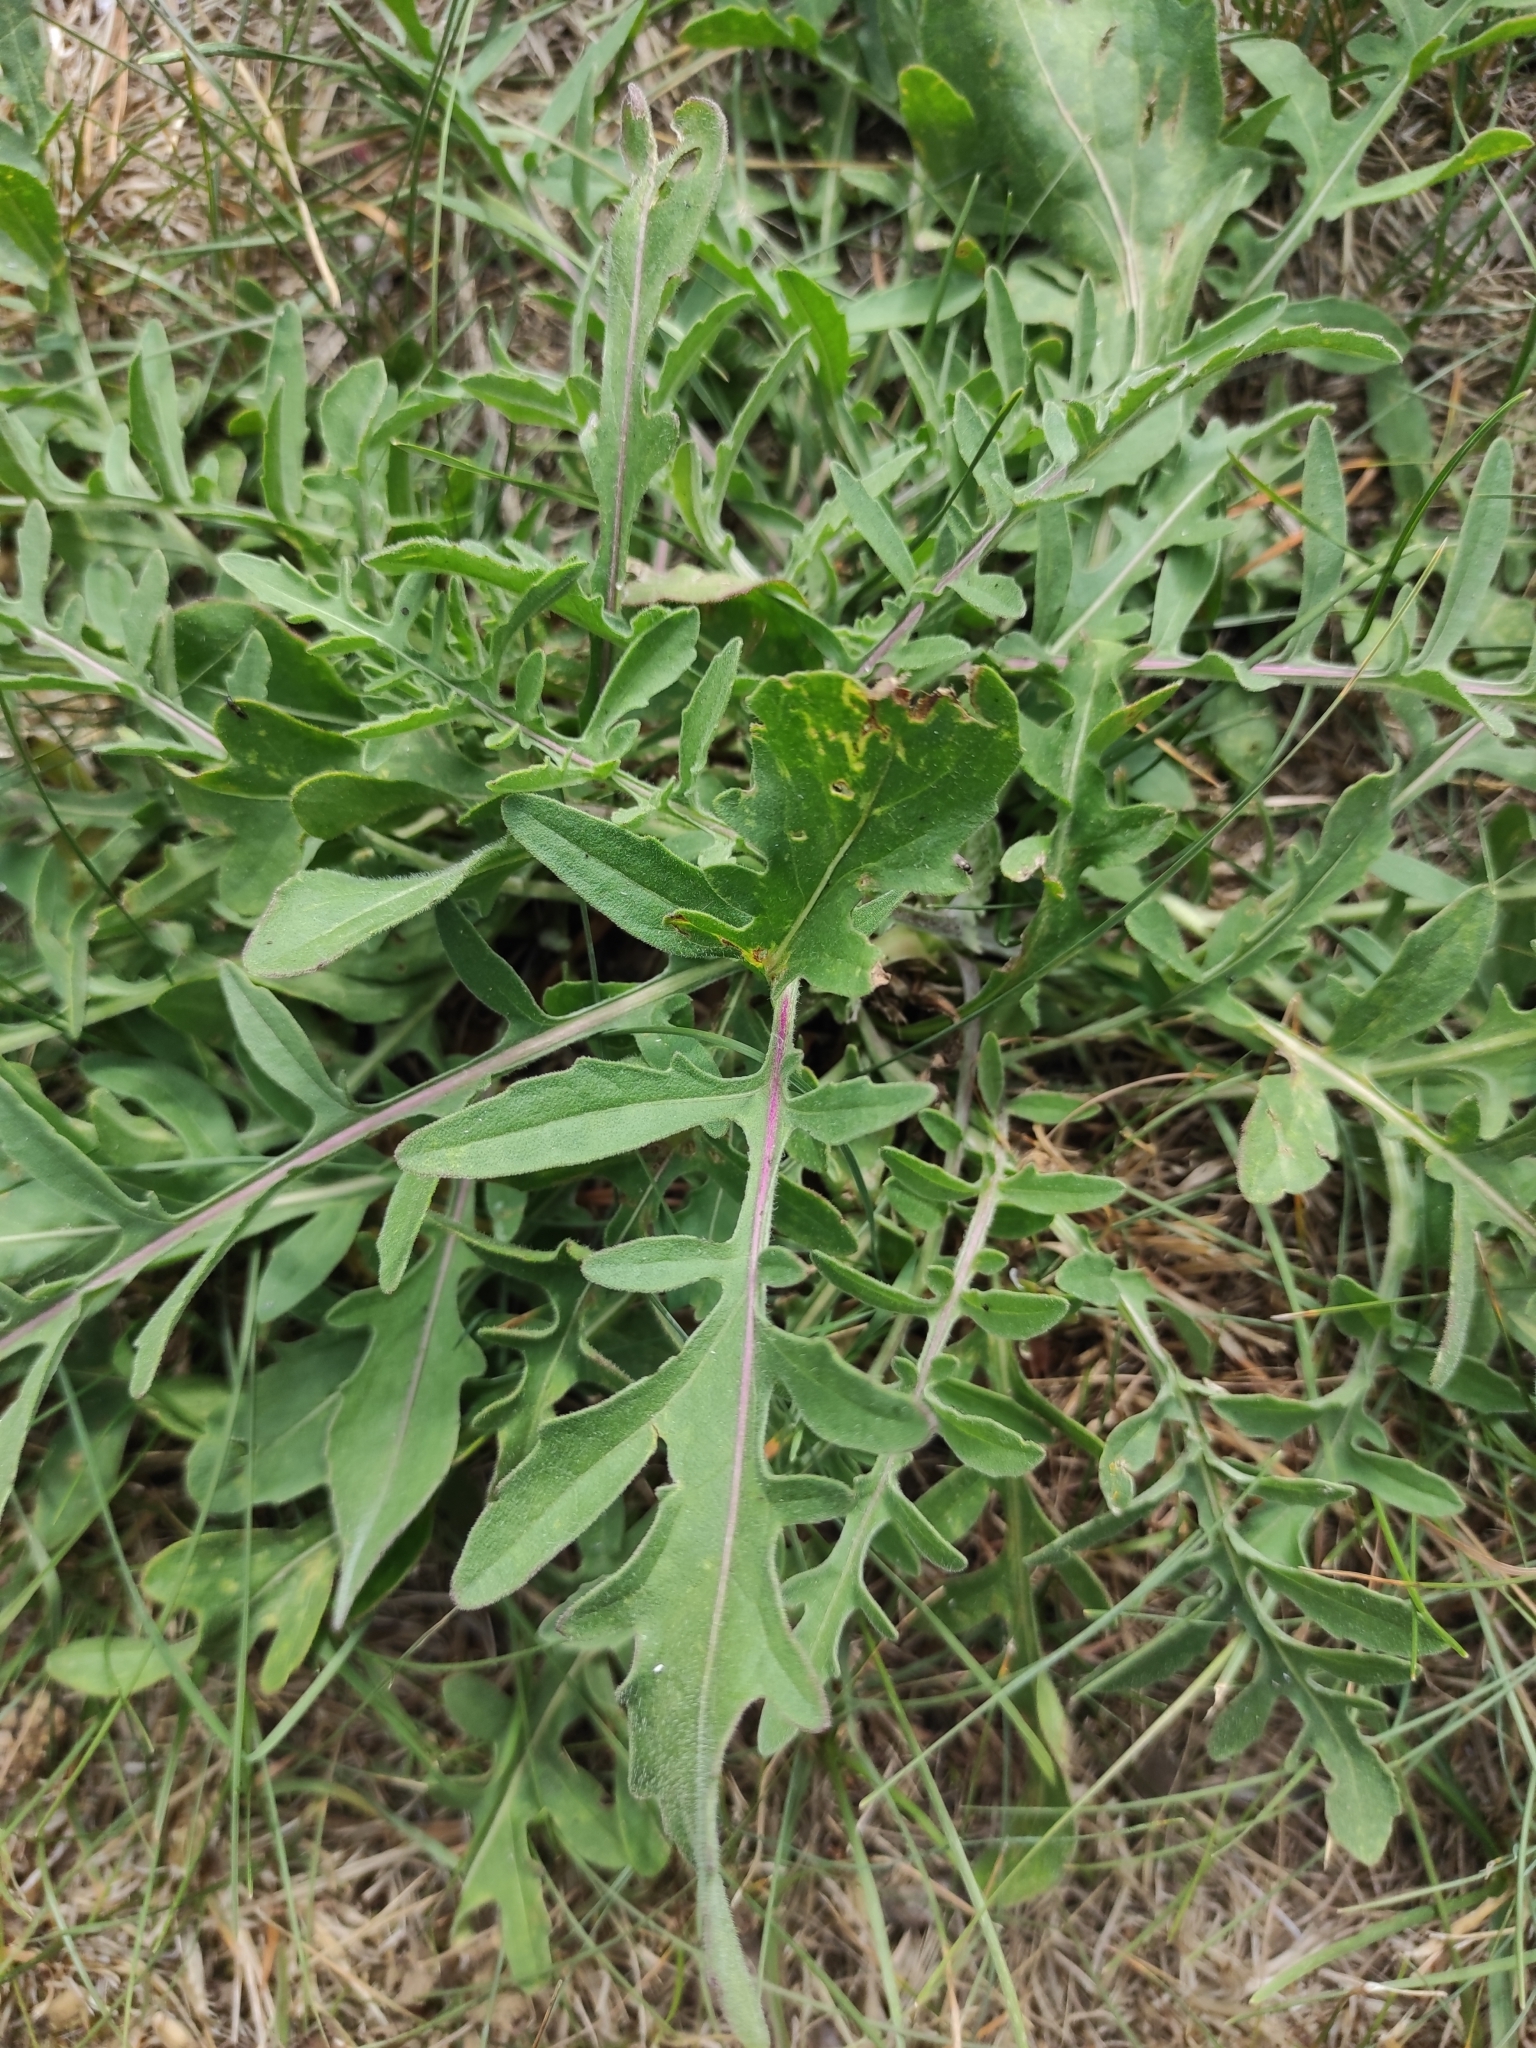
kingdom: Plantae
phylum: Tracheophyta
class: Magnoliopsida
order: Asterales
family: Asteraceae
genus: Centaurea
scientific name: Centaurea scabiosa
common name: Greater knapweed
